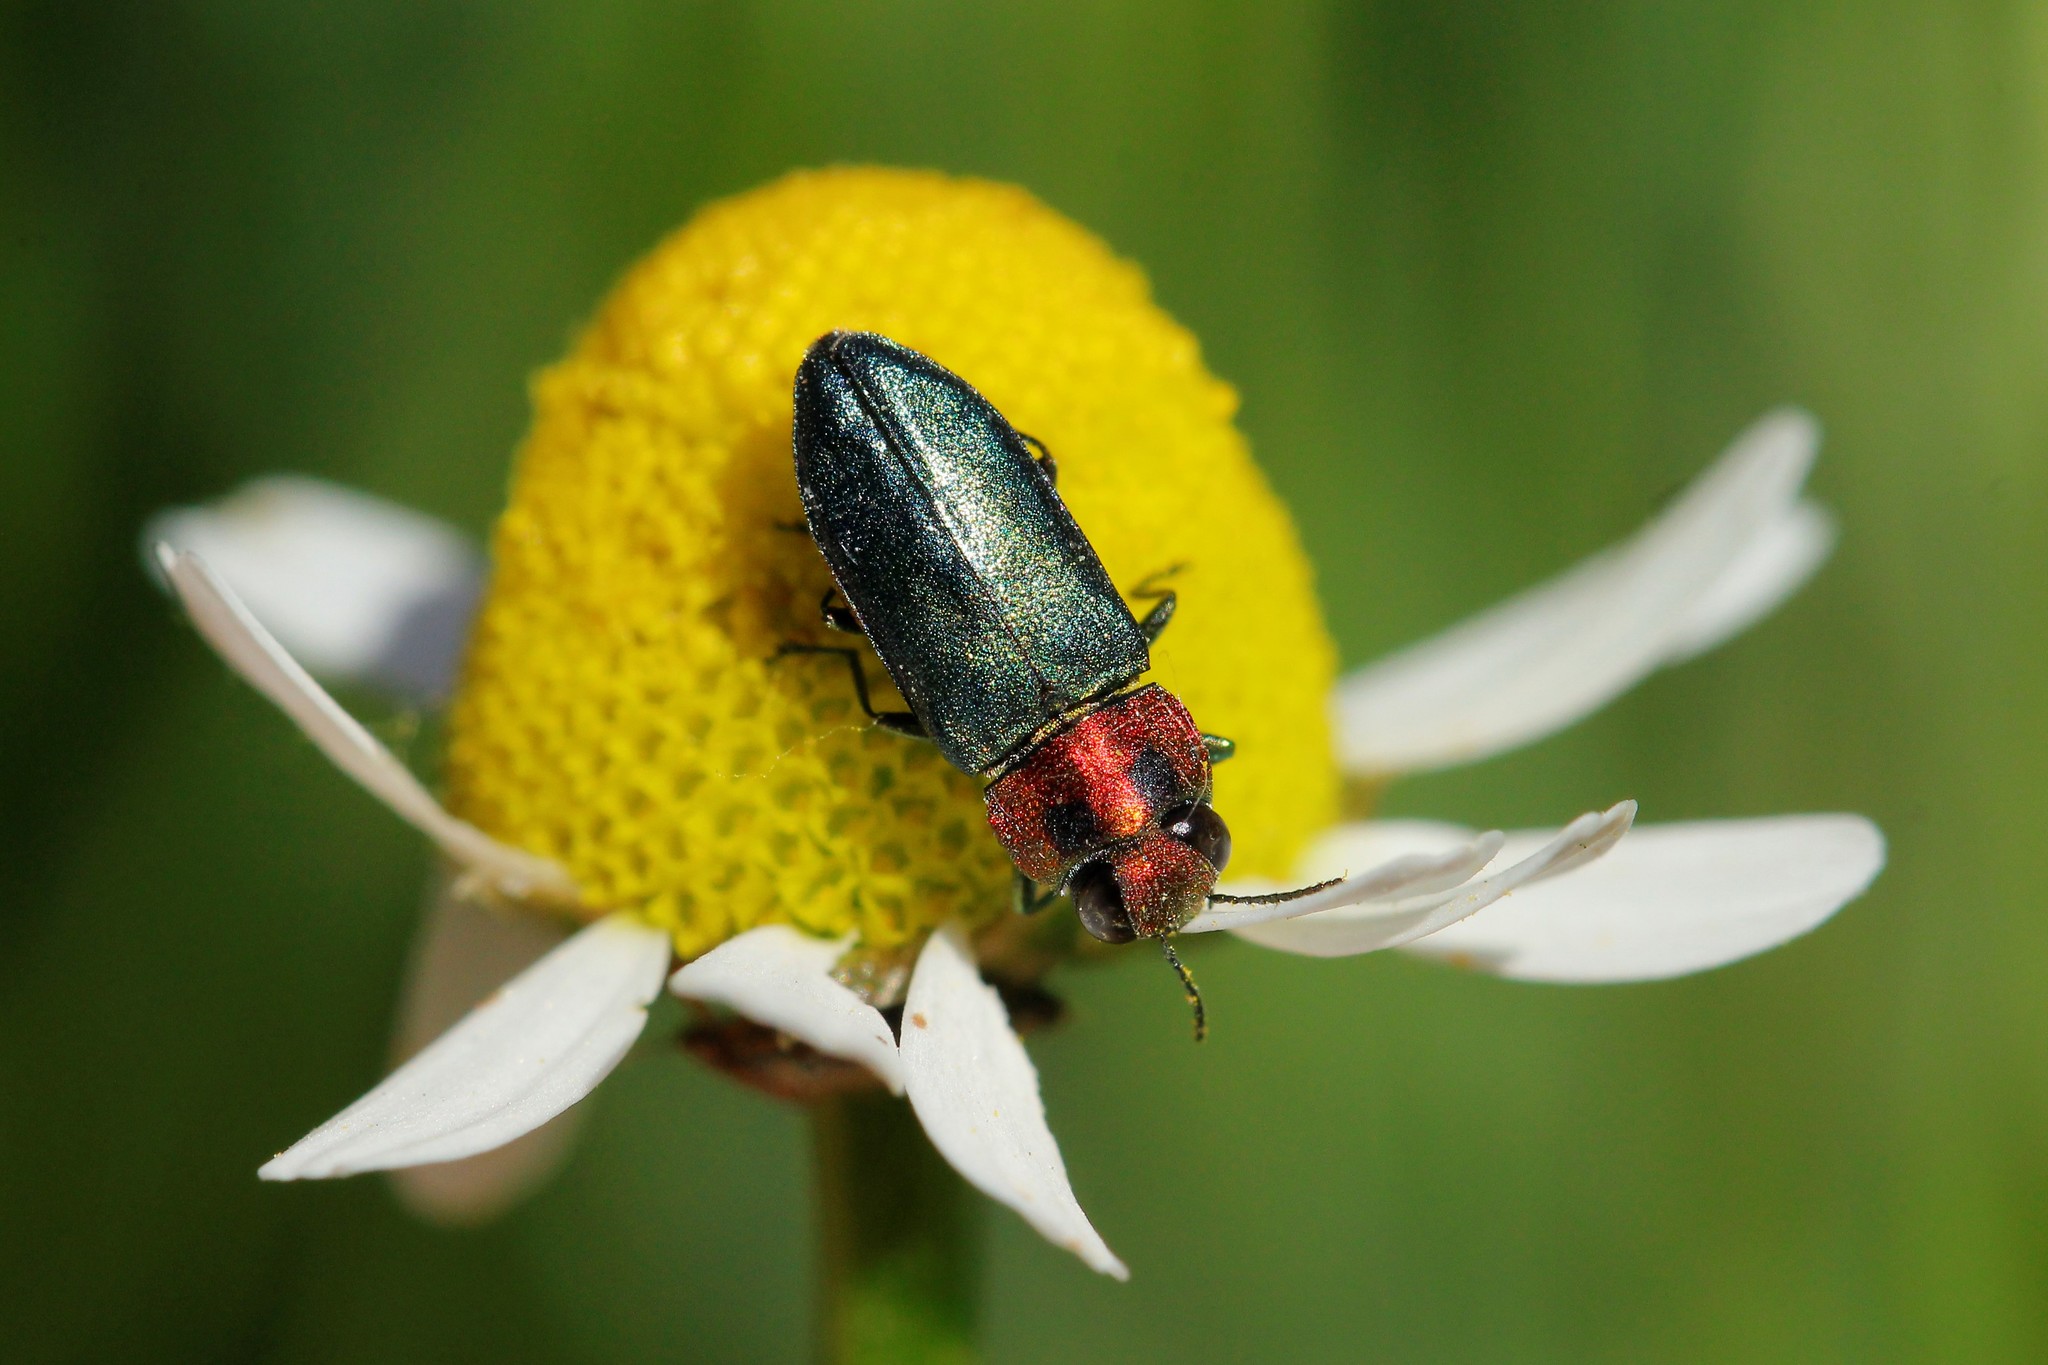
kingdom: Animalia
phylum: Arthropoda
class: Insecta
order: Coleoptera
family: Buprestidae
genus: Anthaxia
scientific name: Anthaxia nitidula
